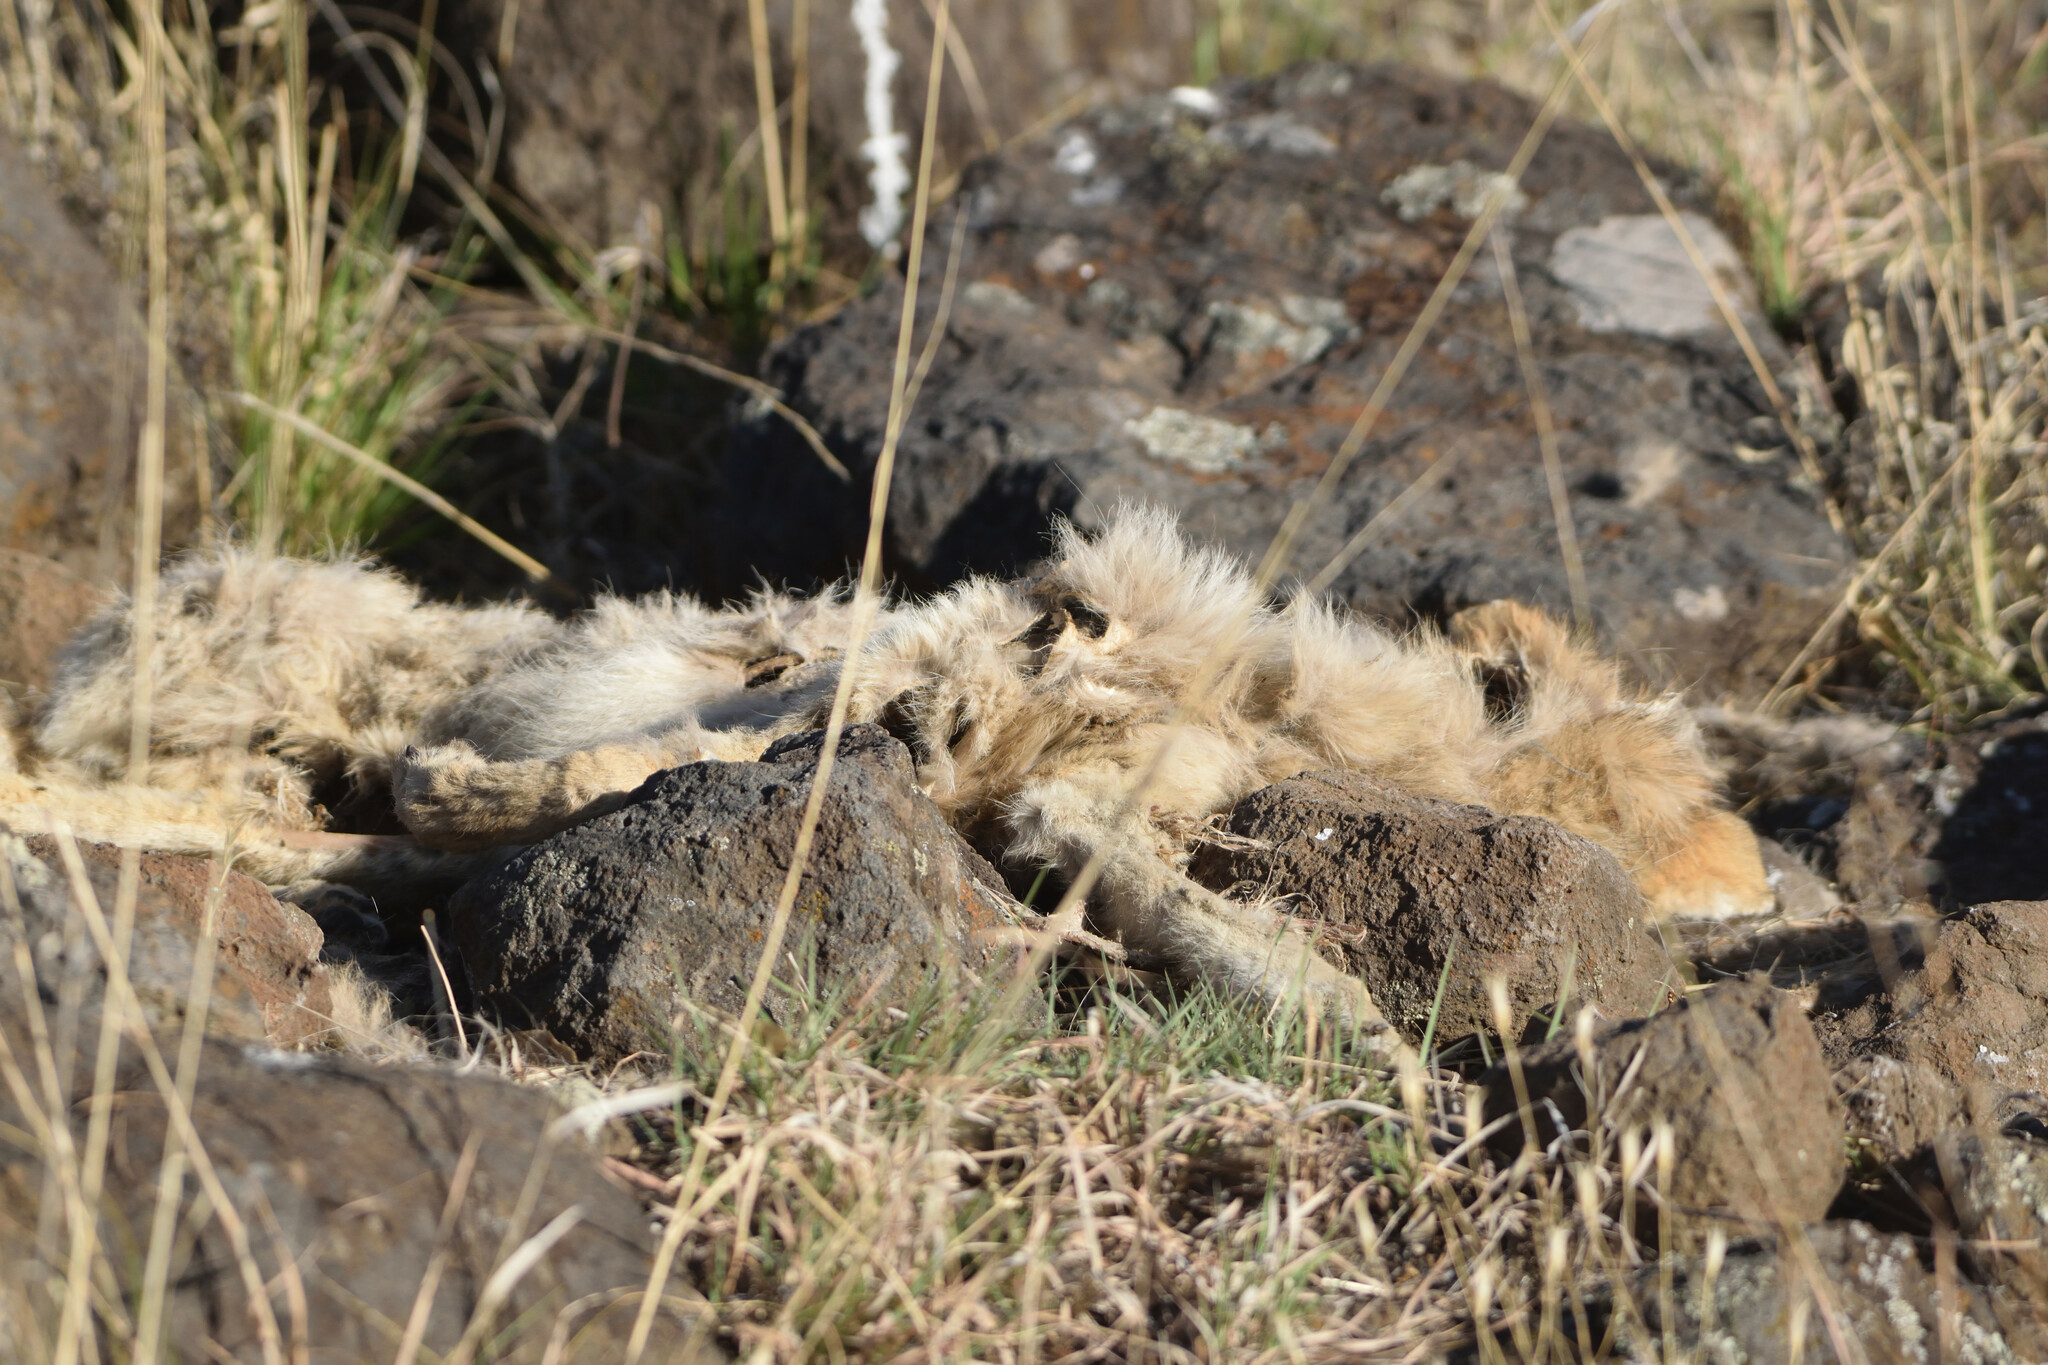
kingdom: Animalia
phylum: Chordata
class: Mammalia
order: Carnivora
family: Canidae
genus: Canis
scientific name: Canis latrans
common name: Coyote
